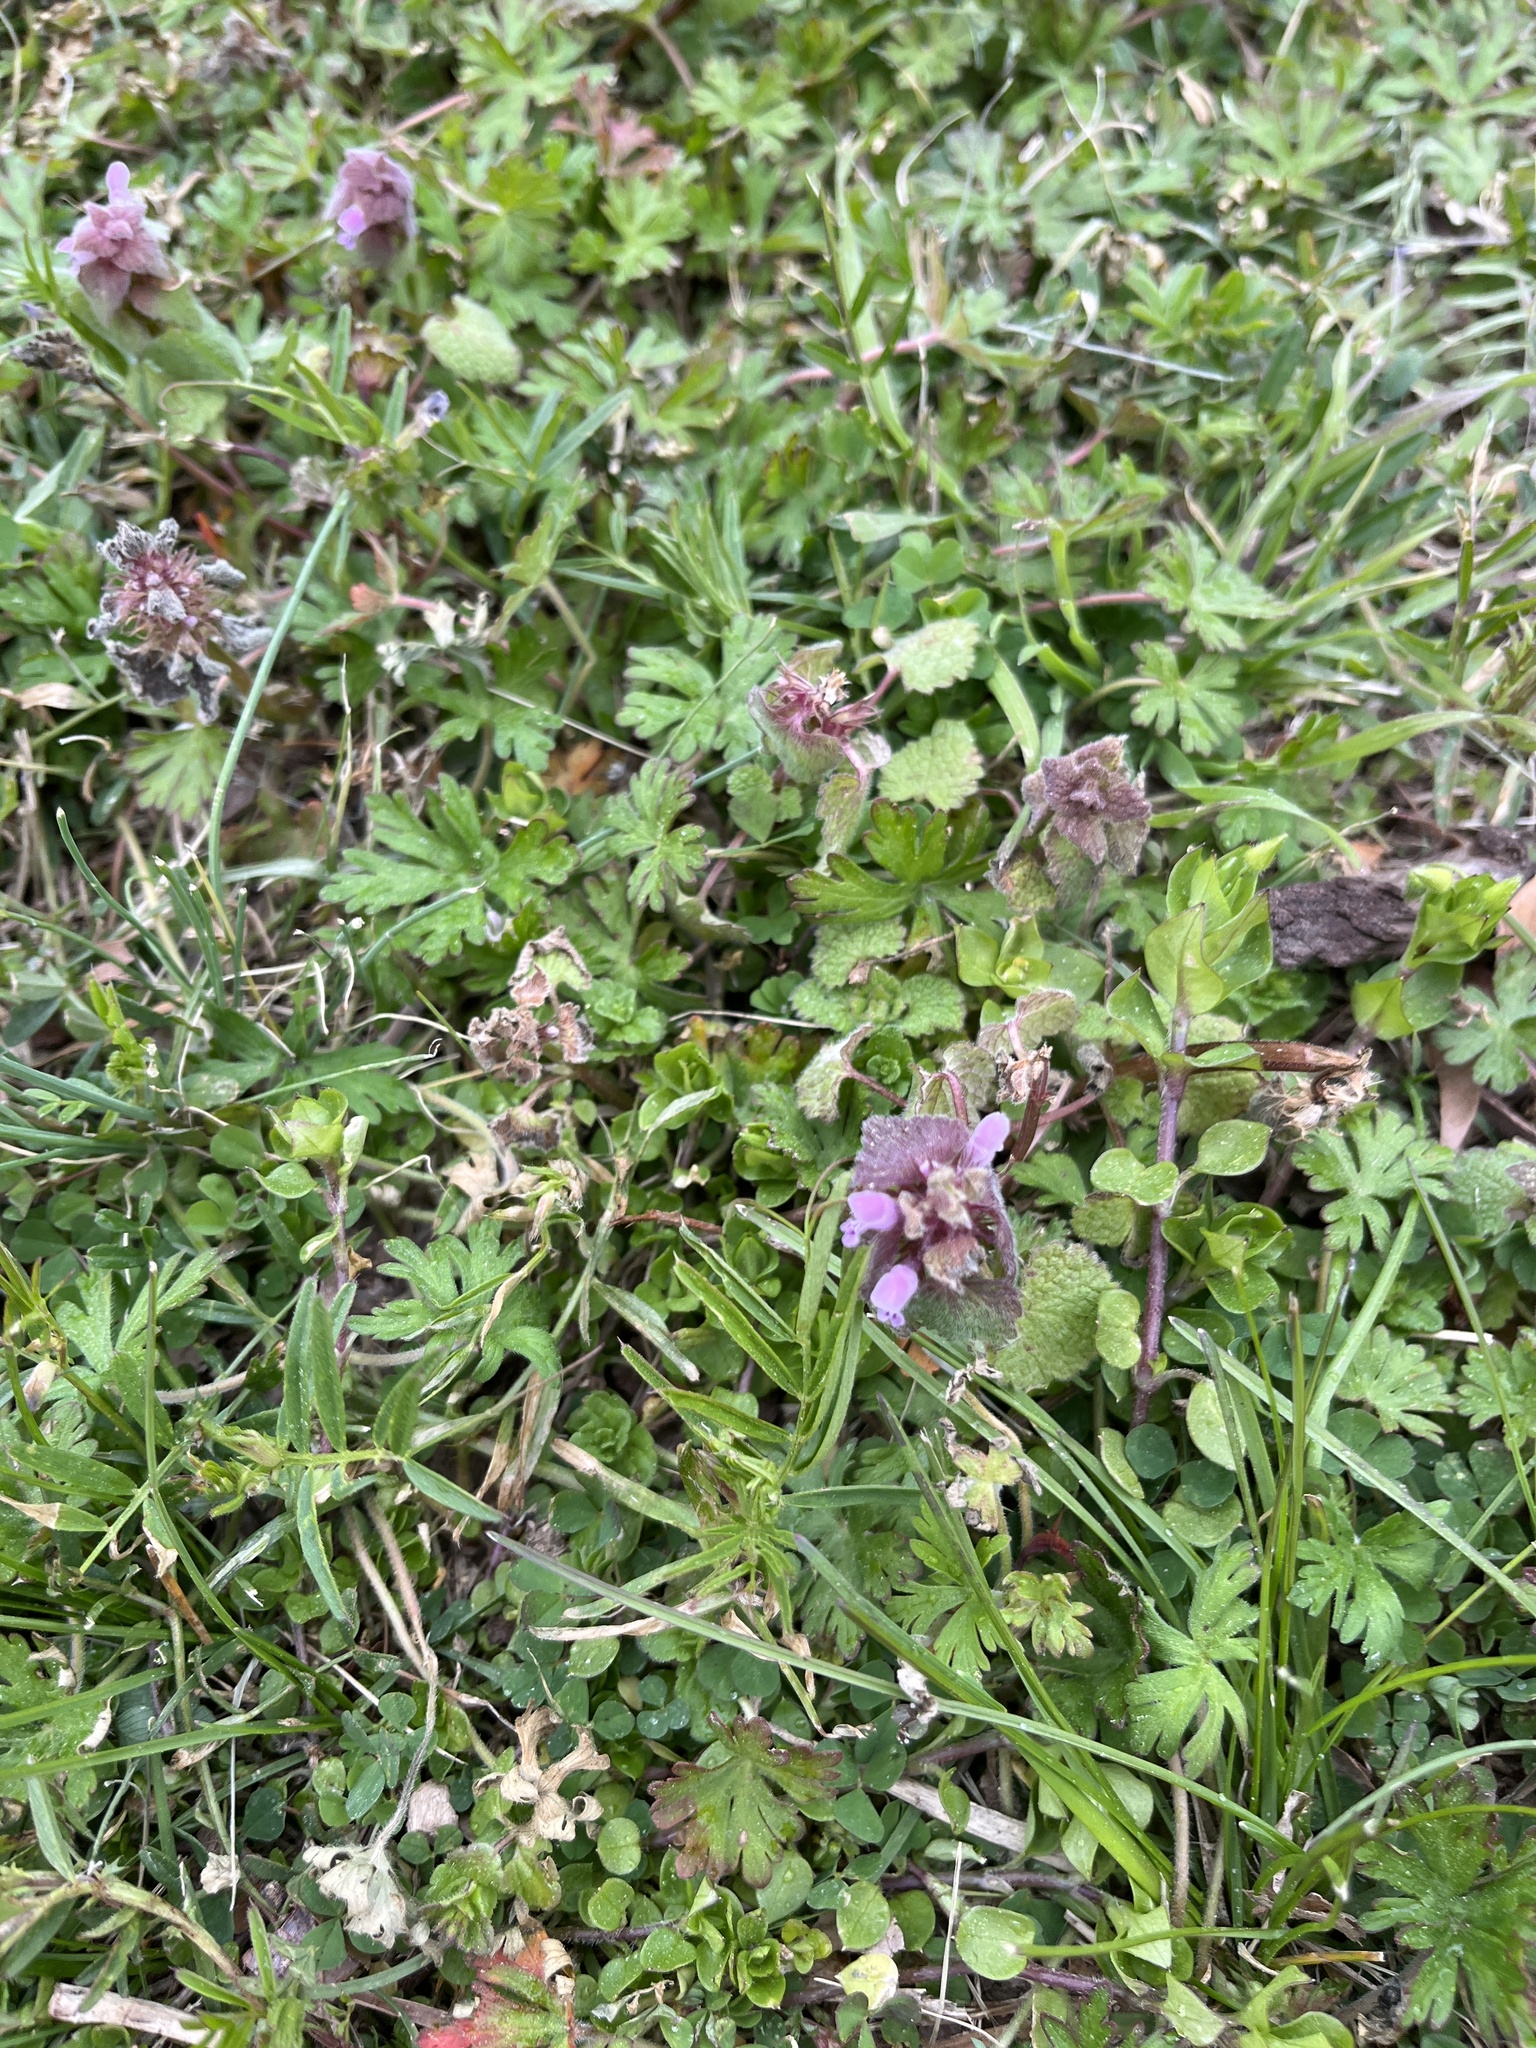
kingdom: Plantae
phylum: Tracheophyta
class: Magnoliopsida
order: Lamiales
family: Lamiaceae
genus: Lamium
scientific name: Lamium purpureum
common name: Red dead-nettle
